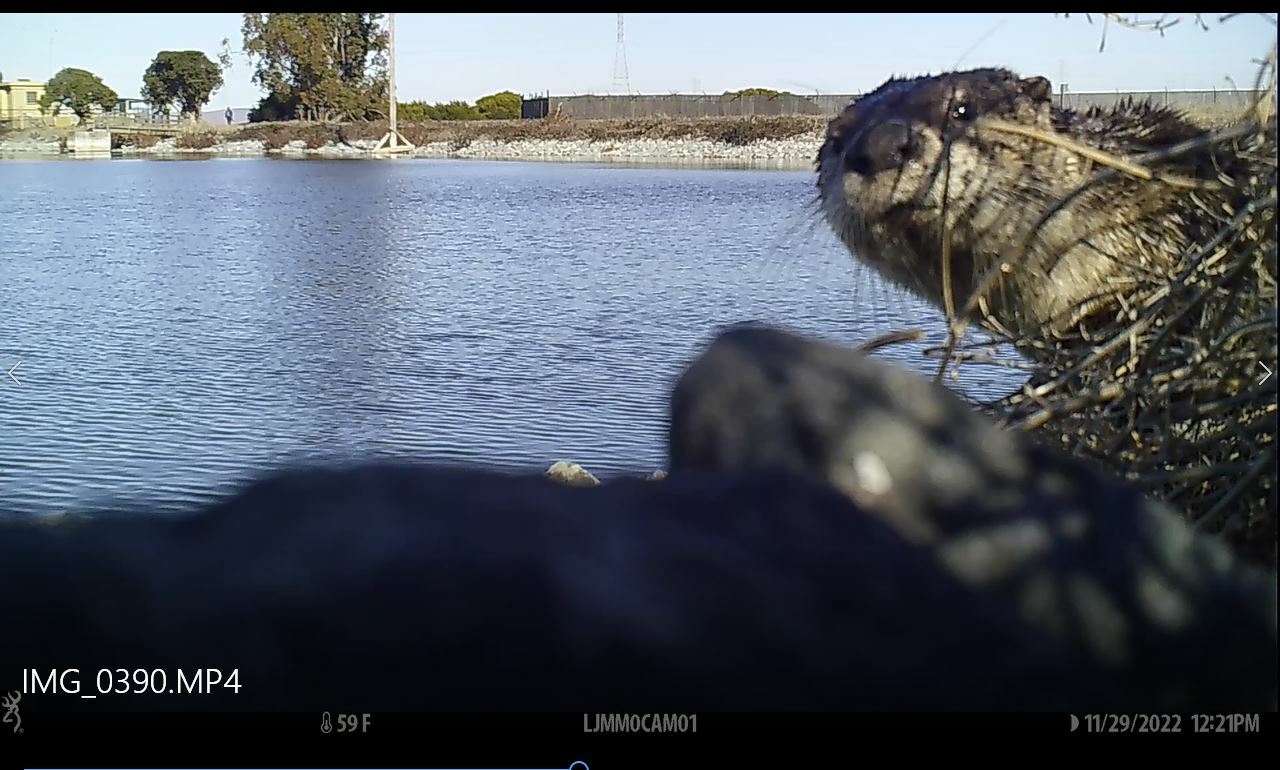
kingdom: Animalia
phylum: Chordata
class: Mammalia
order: Carnivora
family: Mustelidae
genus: Lontra
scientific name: Lontra canadensis
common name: North american river otter
